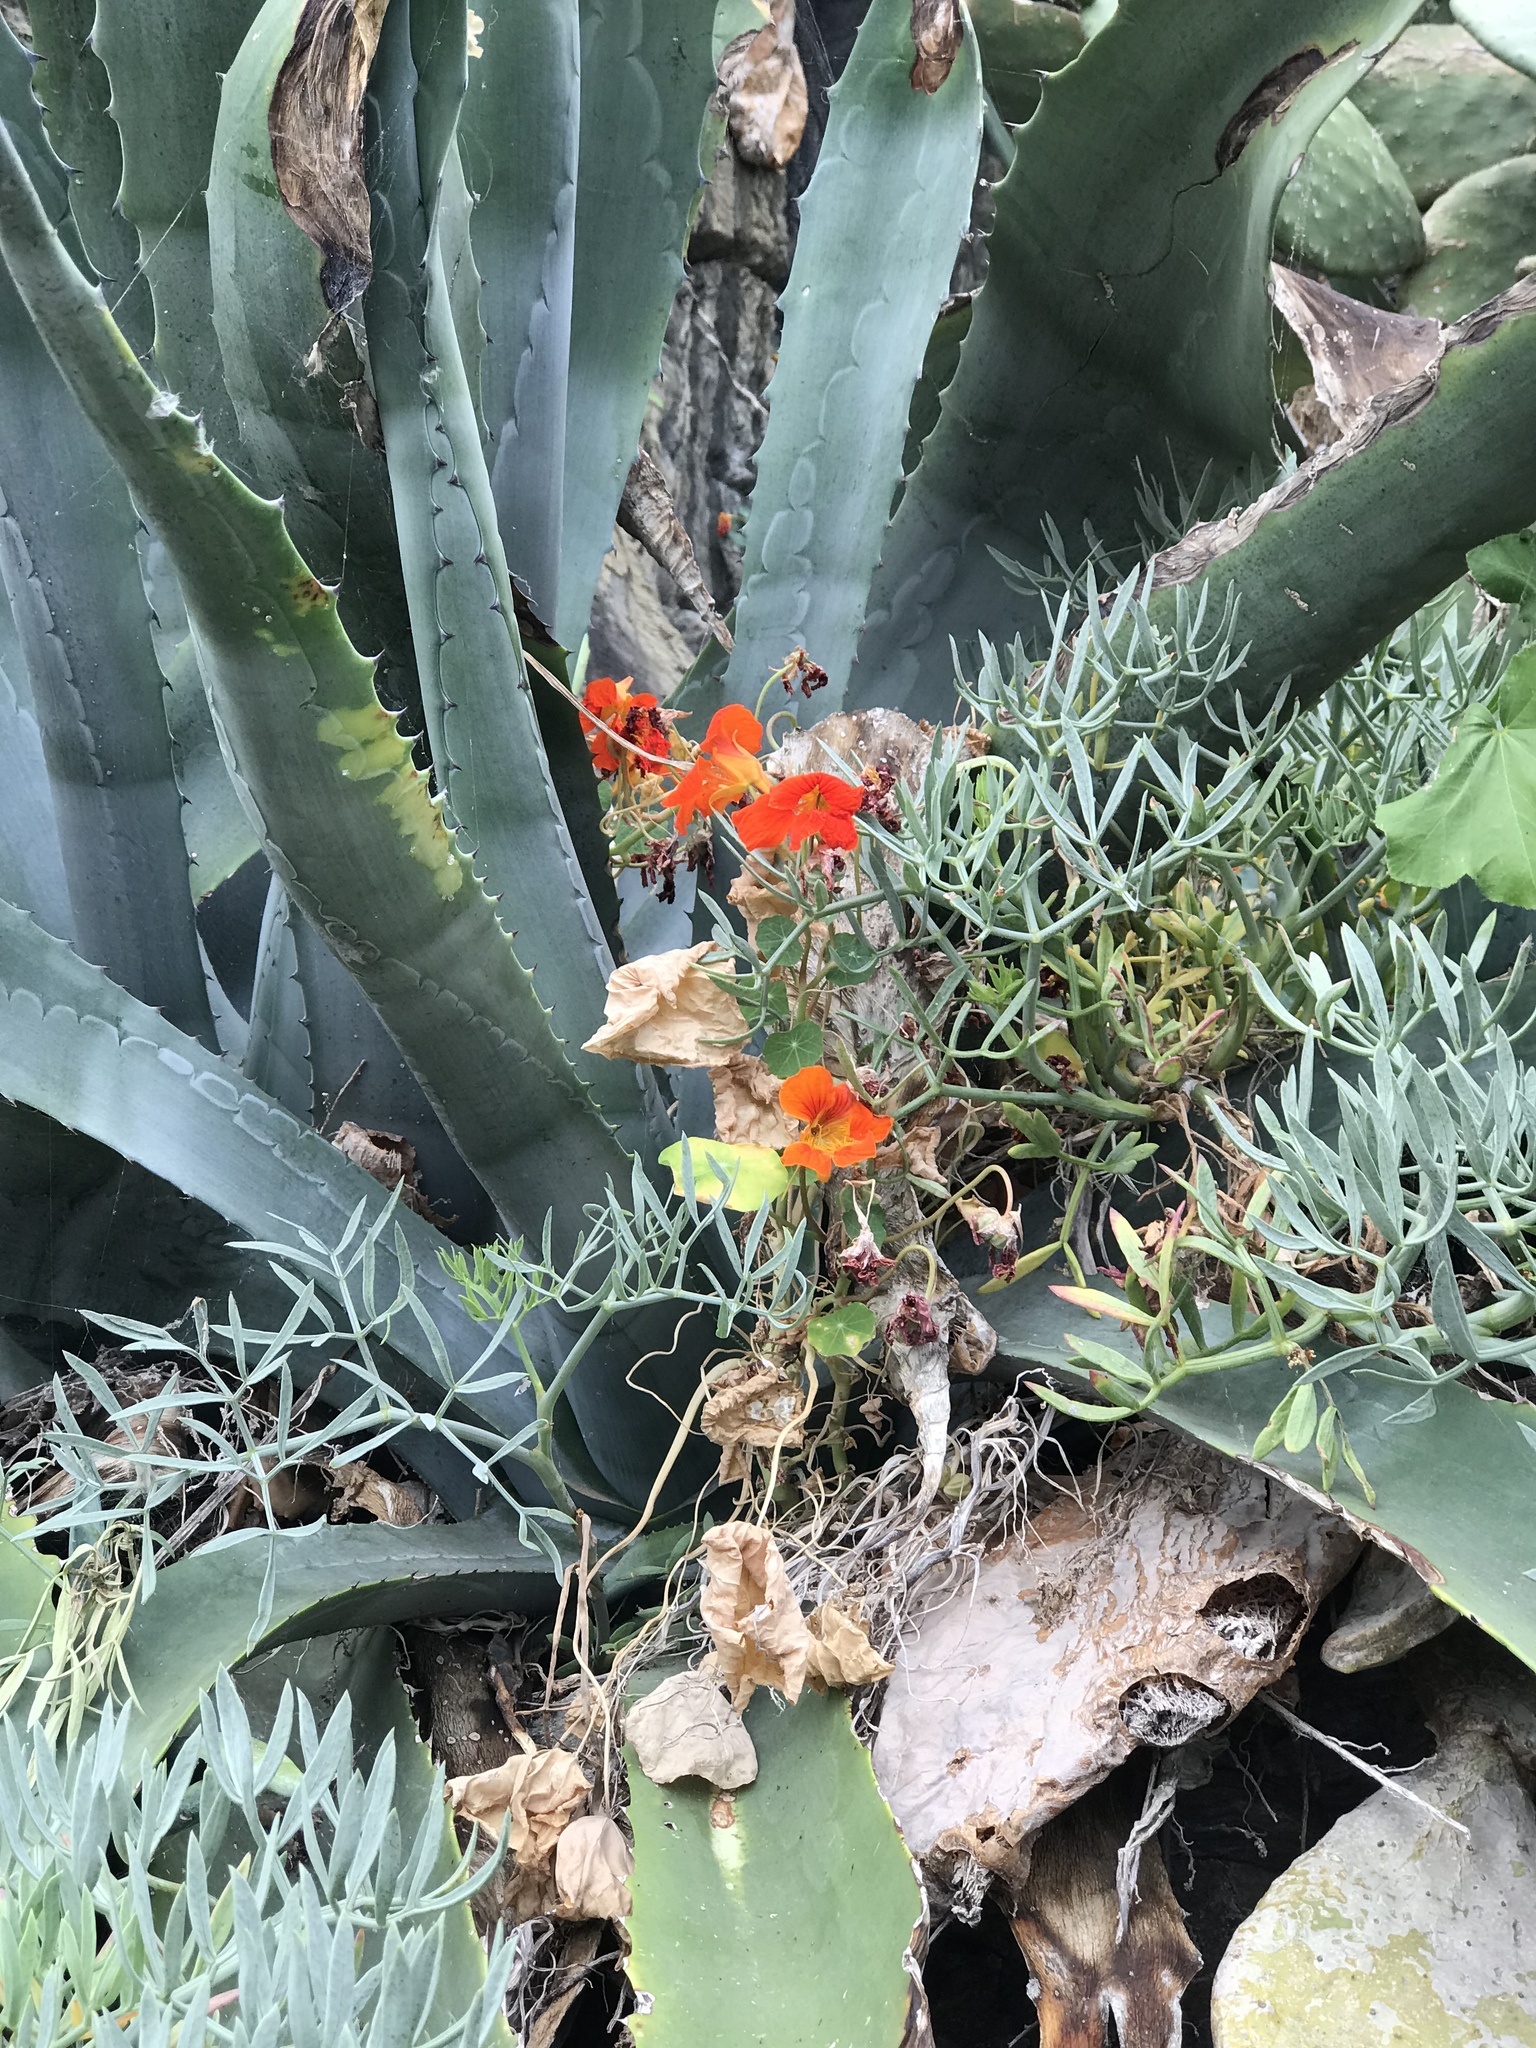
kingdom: Plantae
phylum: Tracheophyta
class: Magnoliopsida
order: Brassicales
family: Tropaeolaceae
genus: Tropaeolum
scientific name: Tropaeolum majus
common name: Nasturtium
